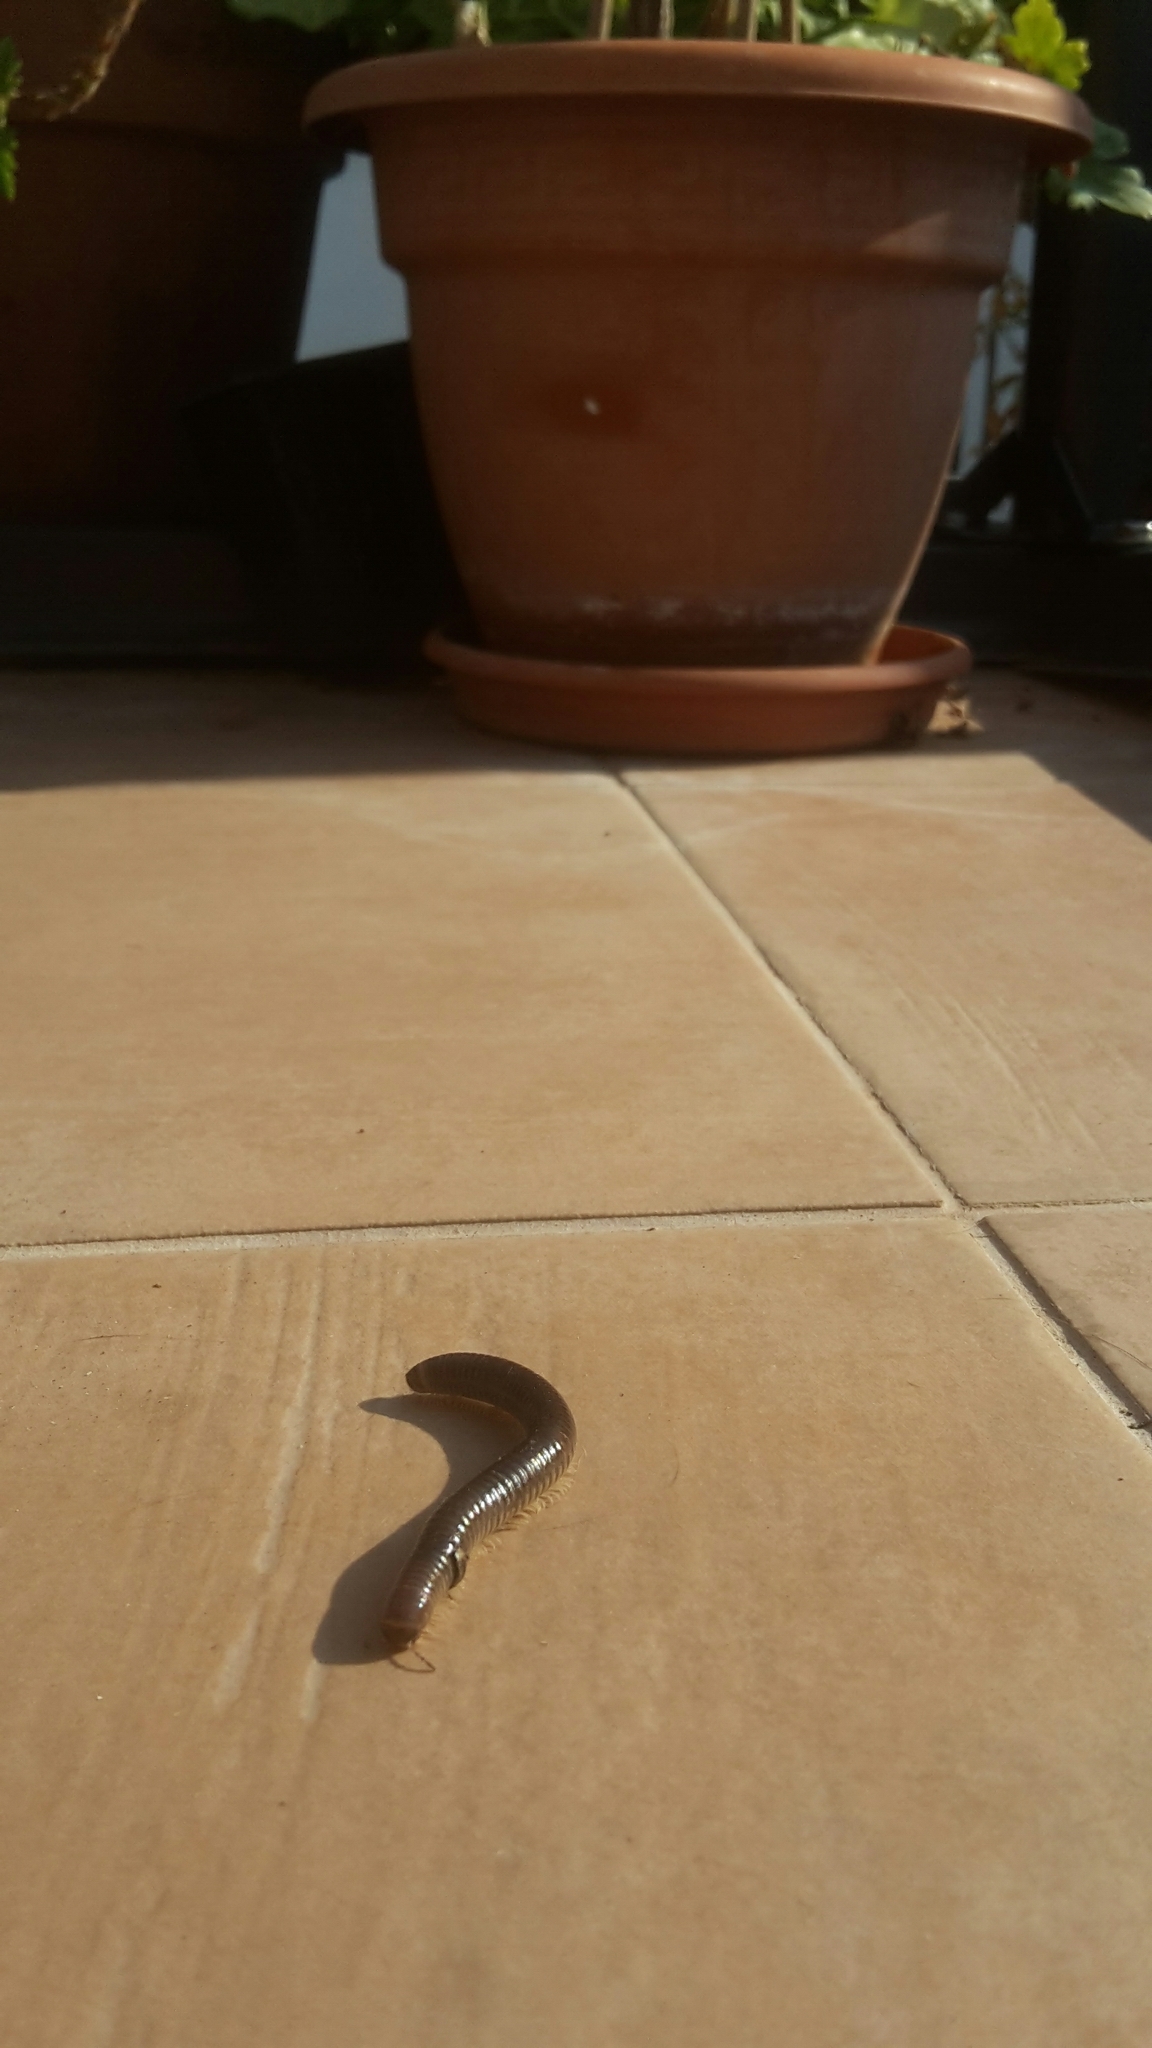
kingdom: Animalia
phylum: Arthropoda
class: Diplopoda
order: Julida
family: Julidae
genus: Pachyiulus
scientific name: Pachyiulus flavipes
